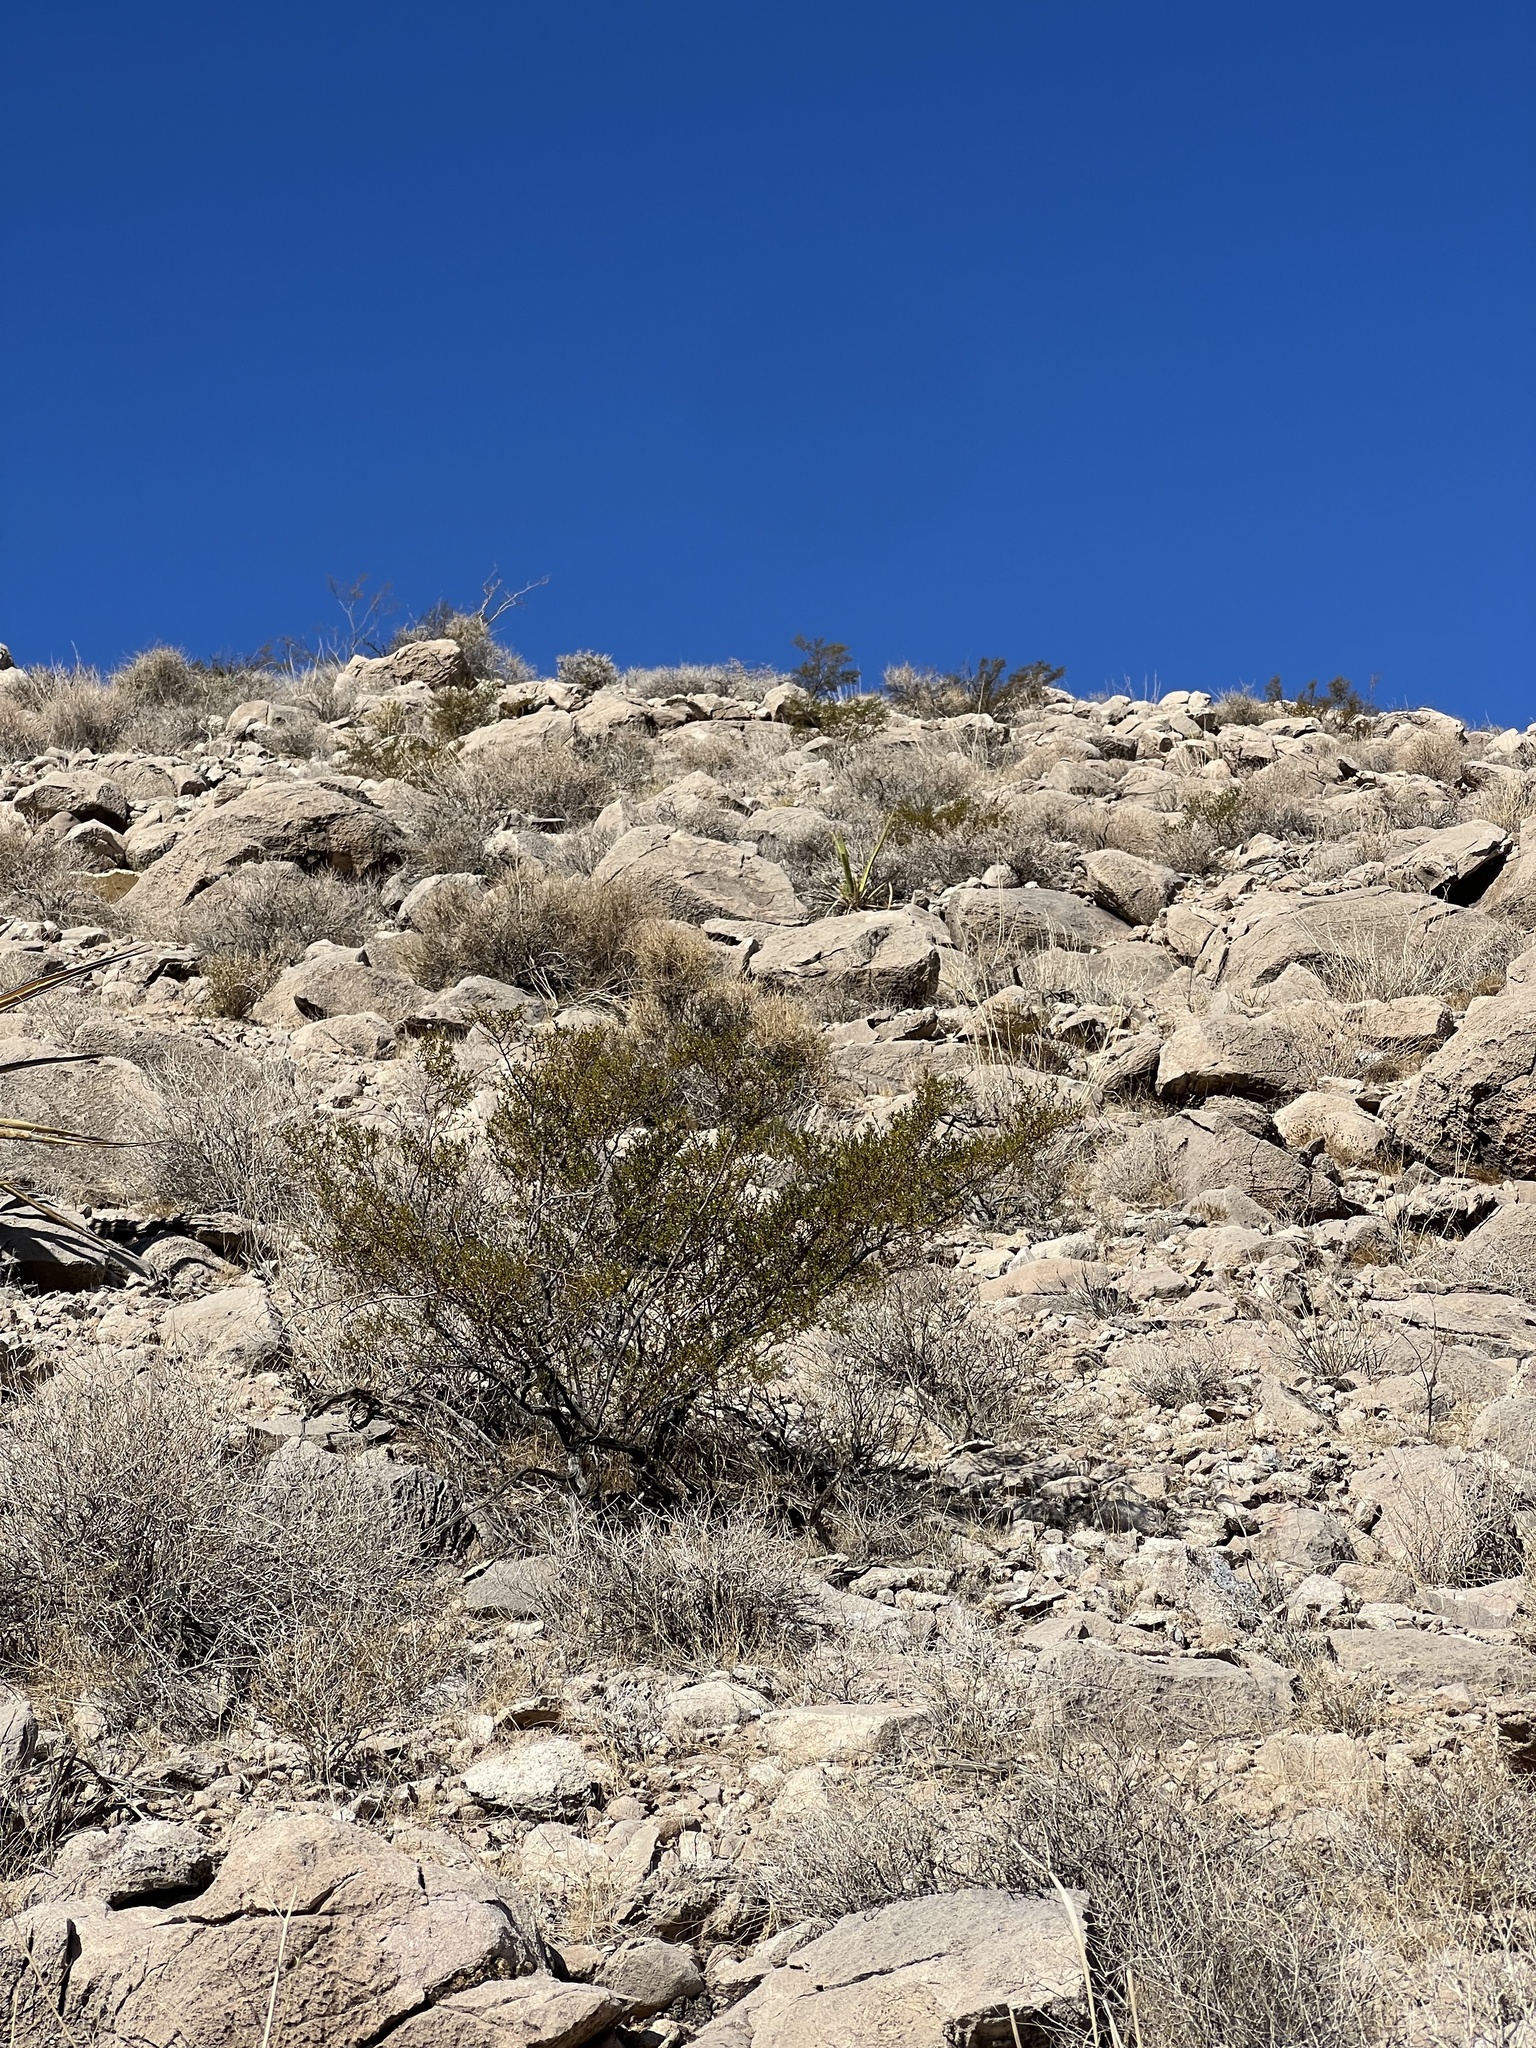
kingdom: Plantae
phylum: Tracheophyta
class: Magnoliopsida
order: Zygophyllales
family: Zygophyllaceae
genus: Larrea
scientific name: Larrea tridentata
